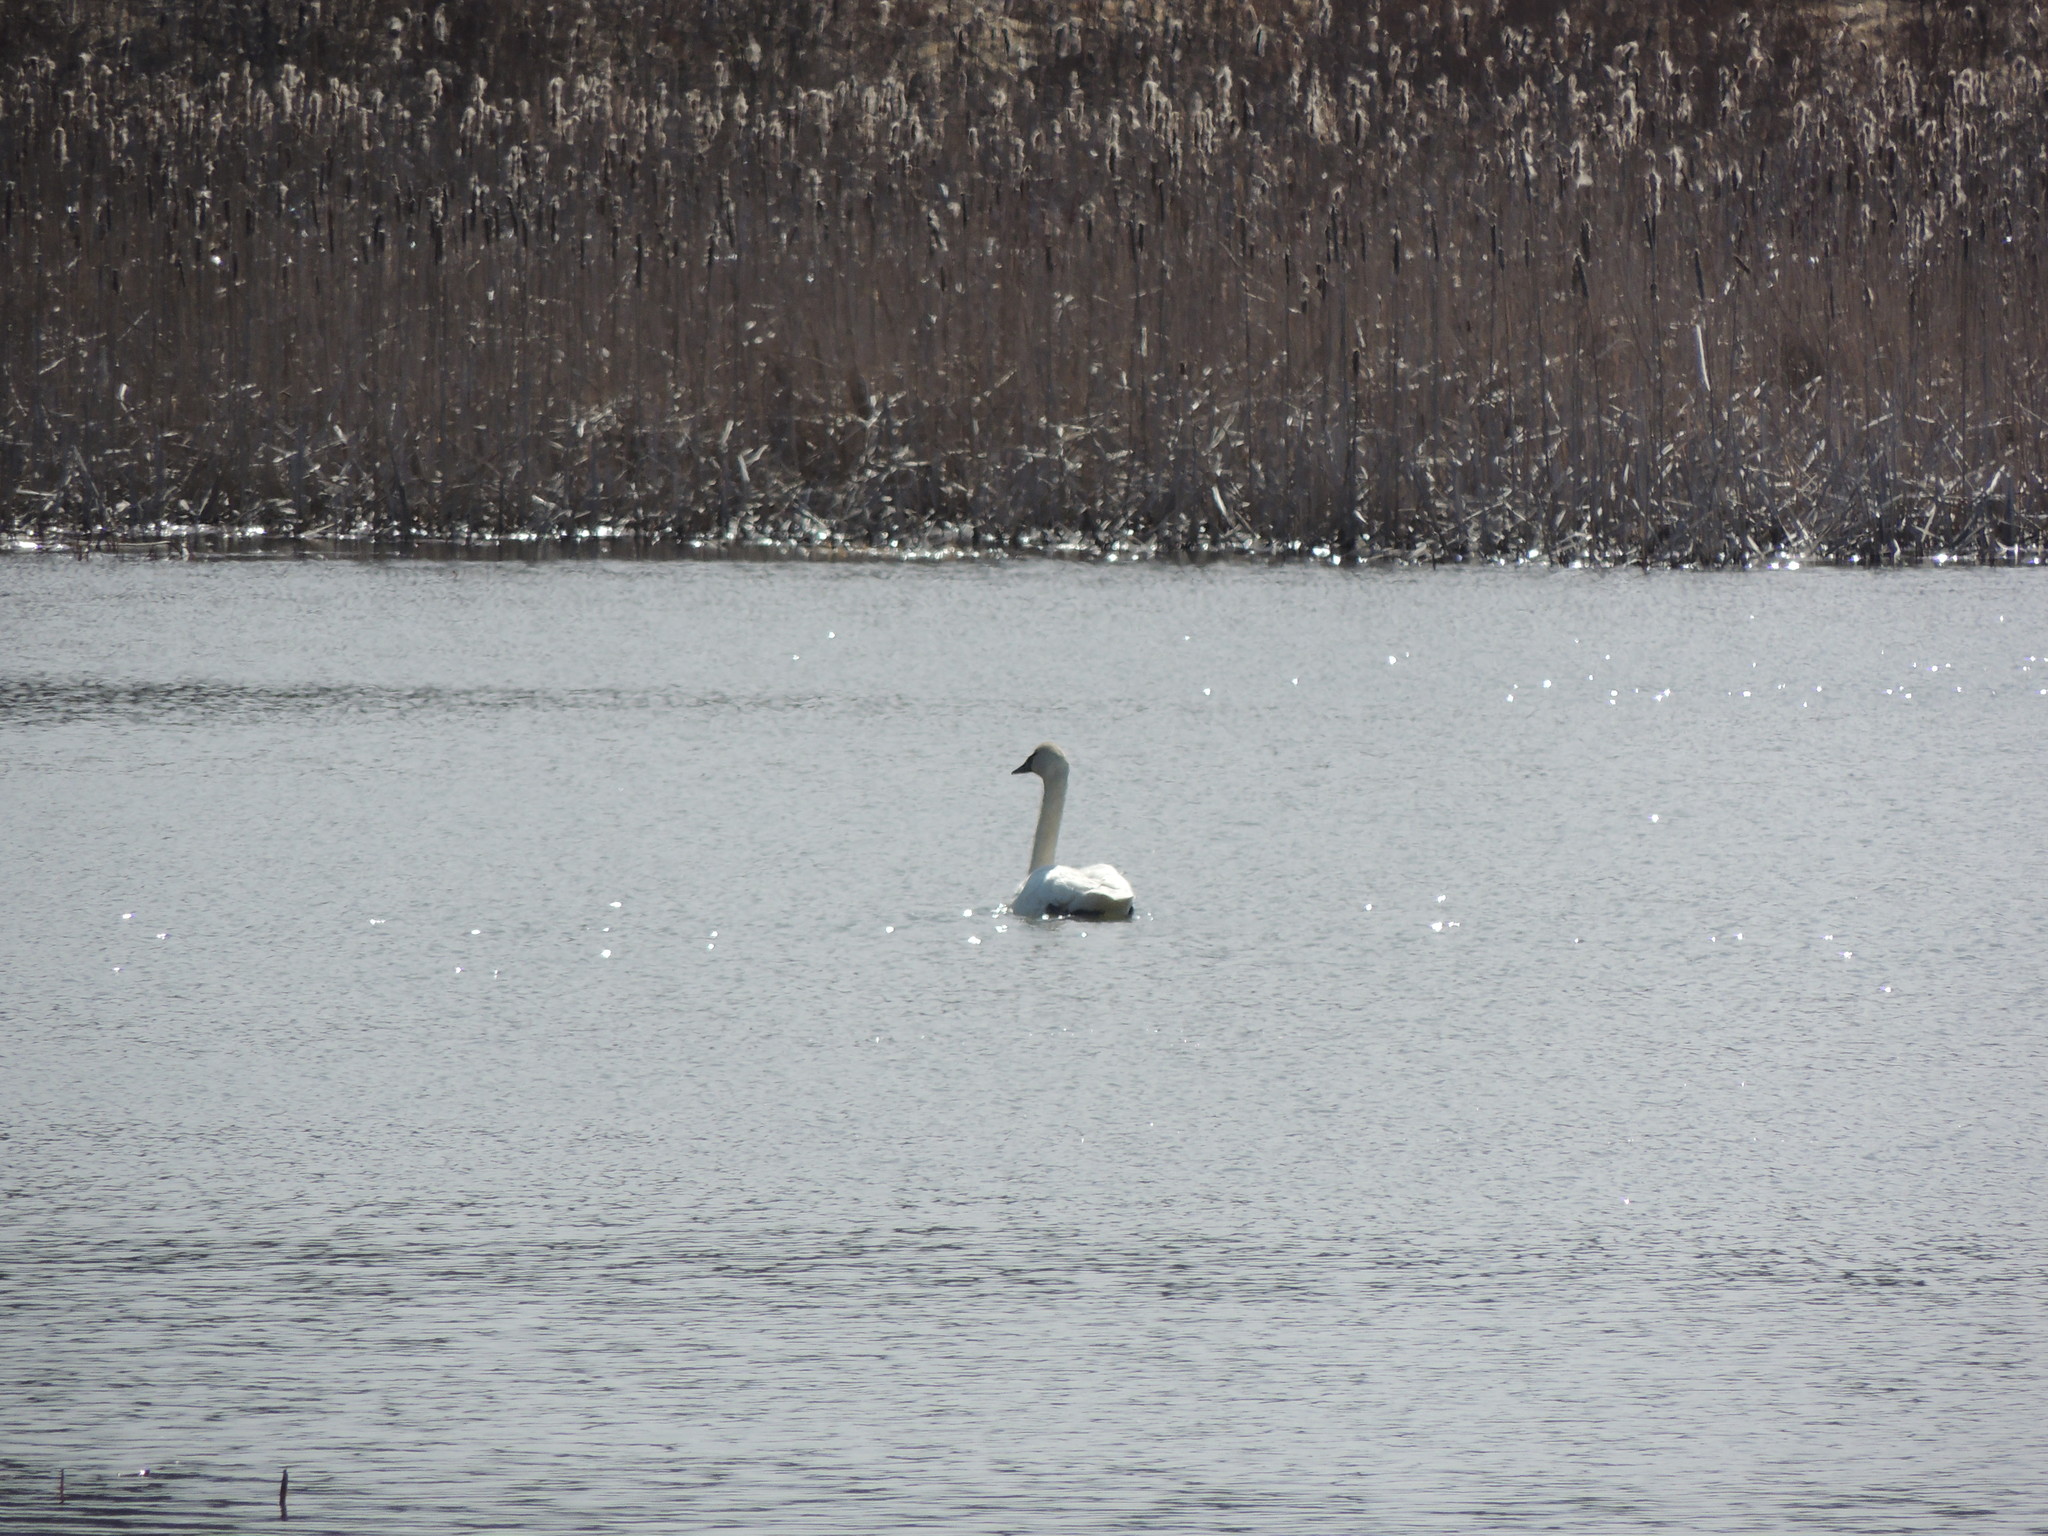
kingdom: Animalia
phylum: Chordata
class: Aves
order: Anseriformes
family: Anatidae
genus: Cygnus
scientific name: Cygnus buccinator
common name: Trumpeter swan
